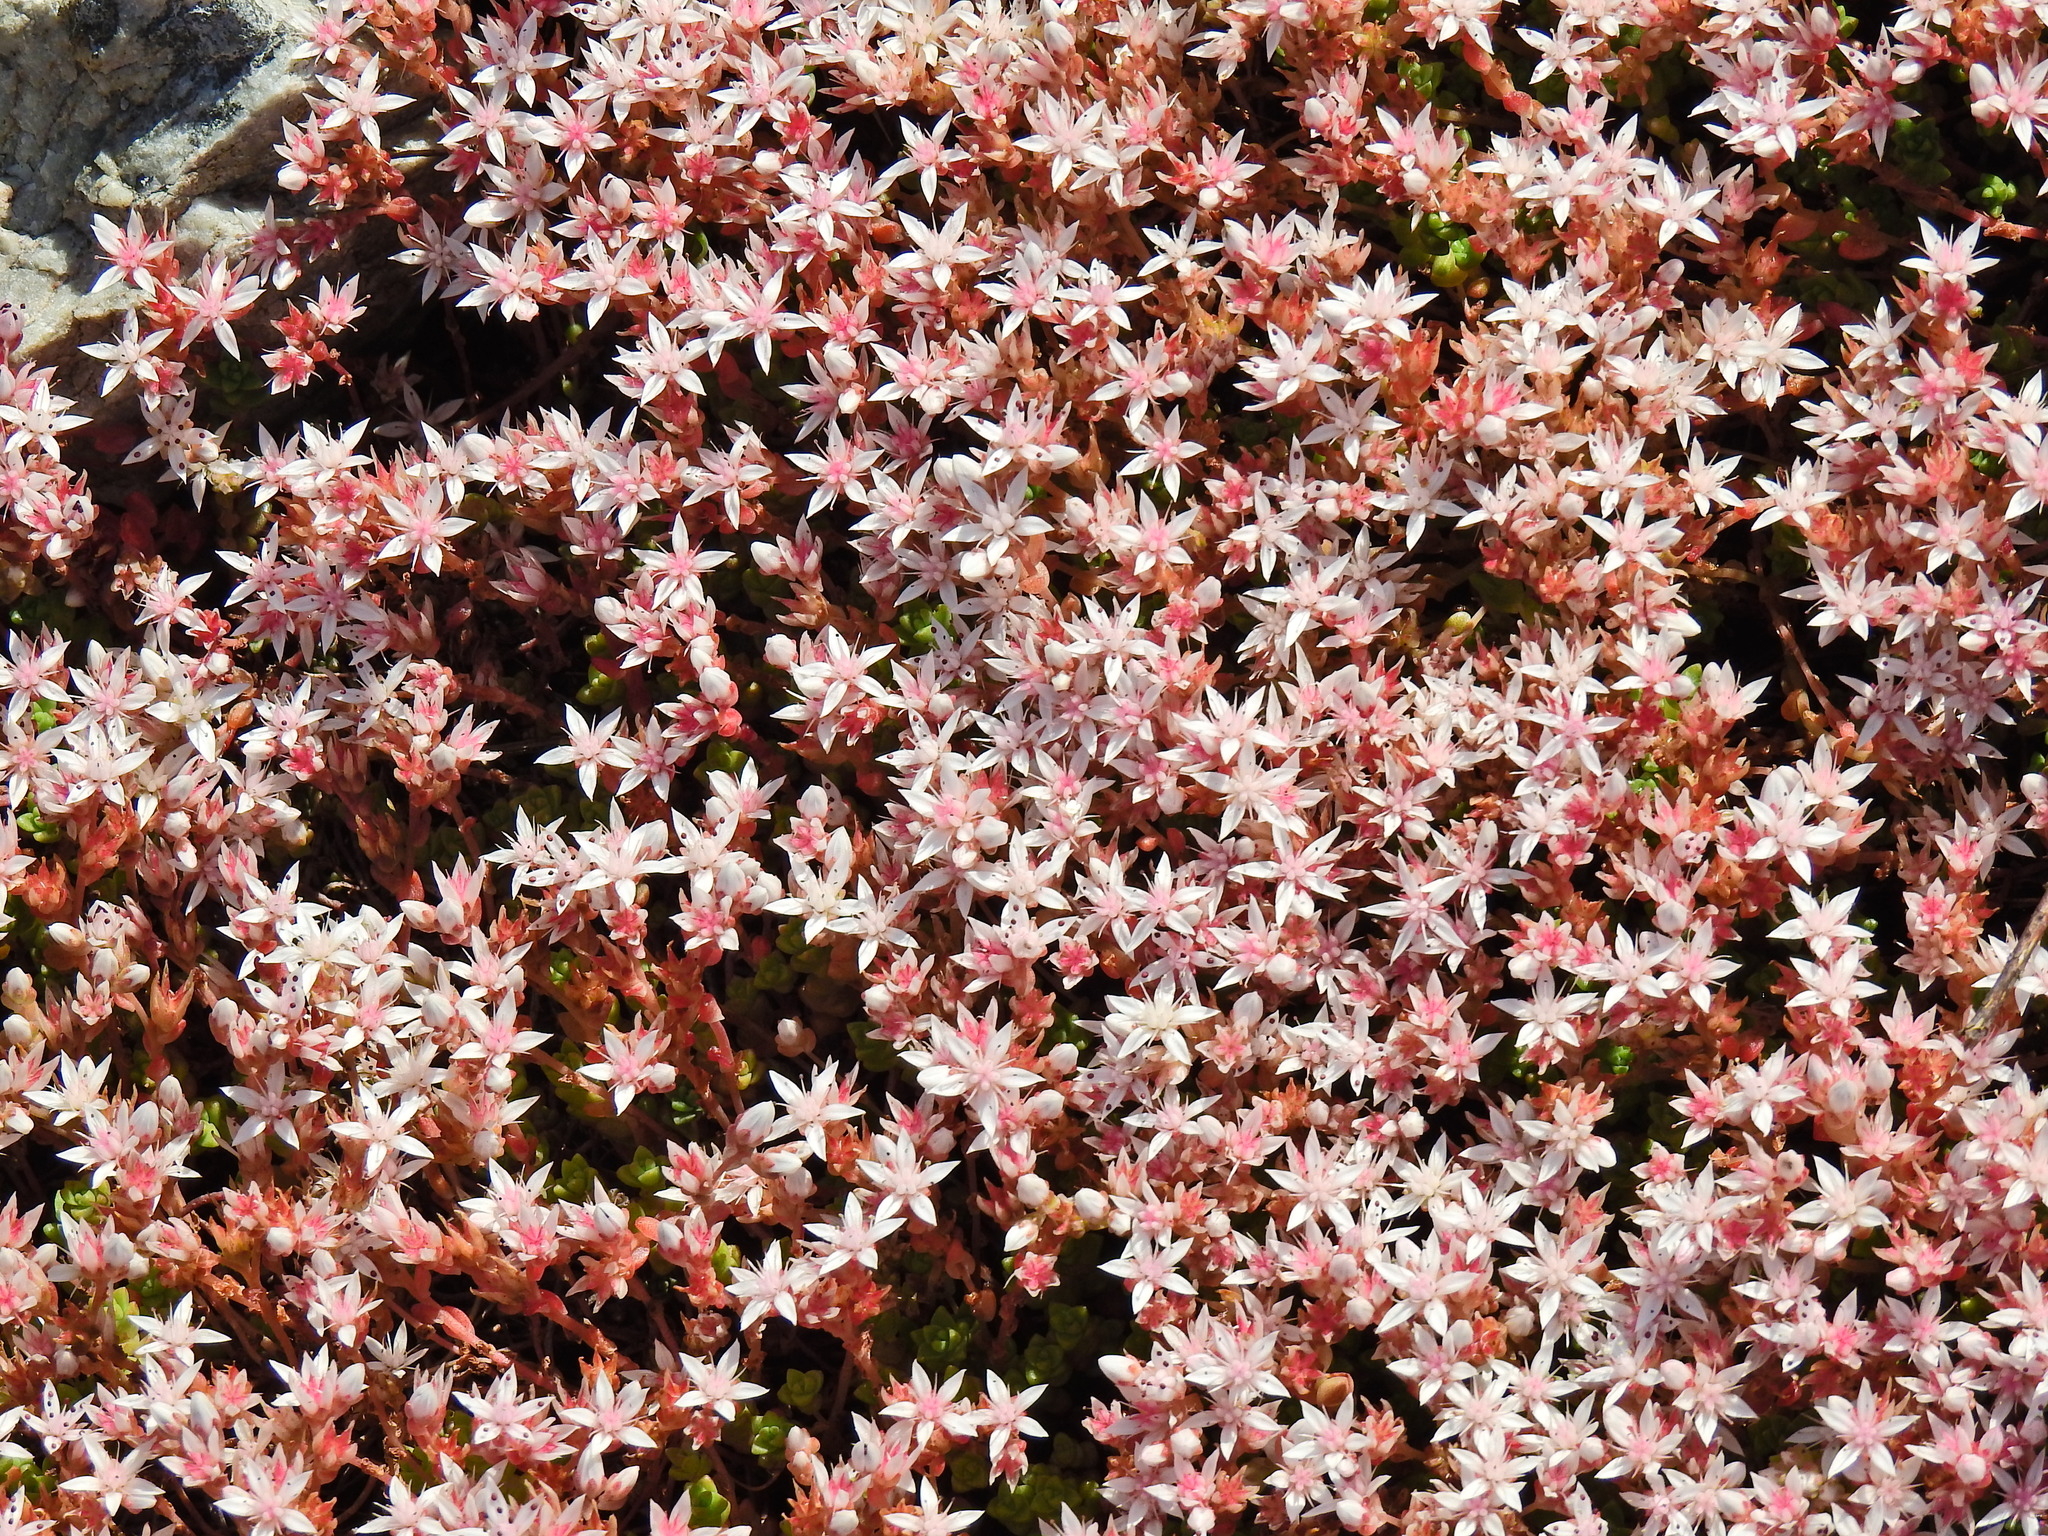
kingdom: Plantae
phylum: Tracheophyta
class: Magnoliopsida
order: Saxifragales
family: Crassulaceae
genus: Sedum
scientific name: Sedum anglicum
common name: English stonecrop
